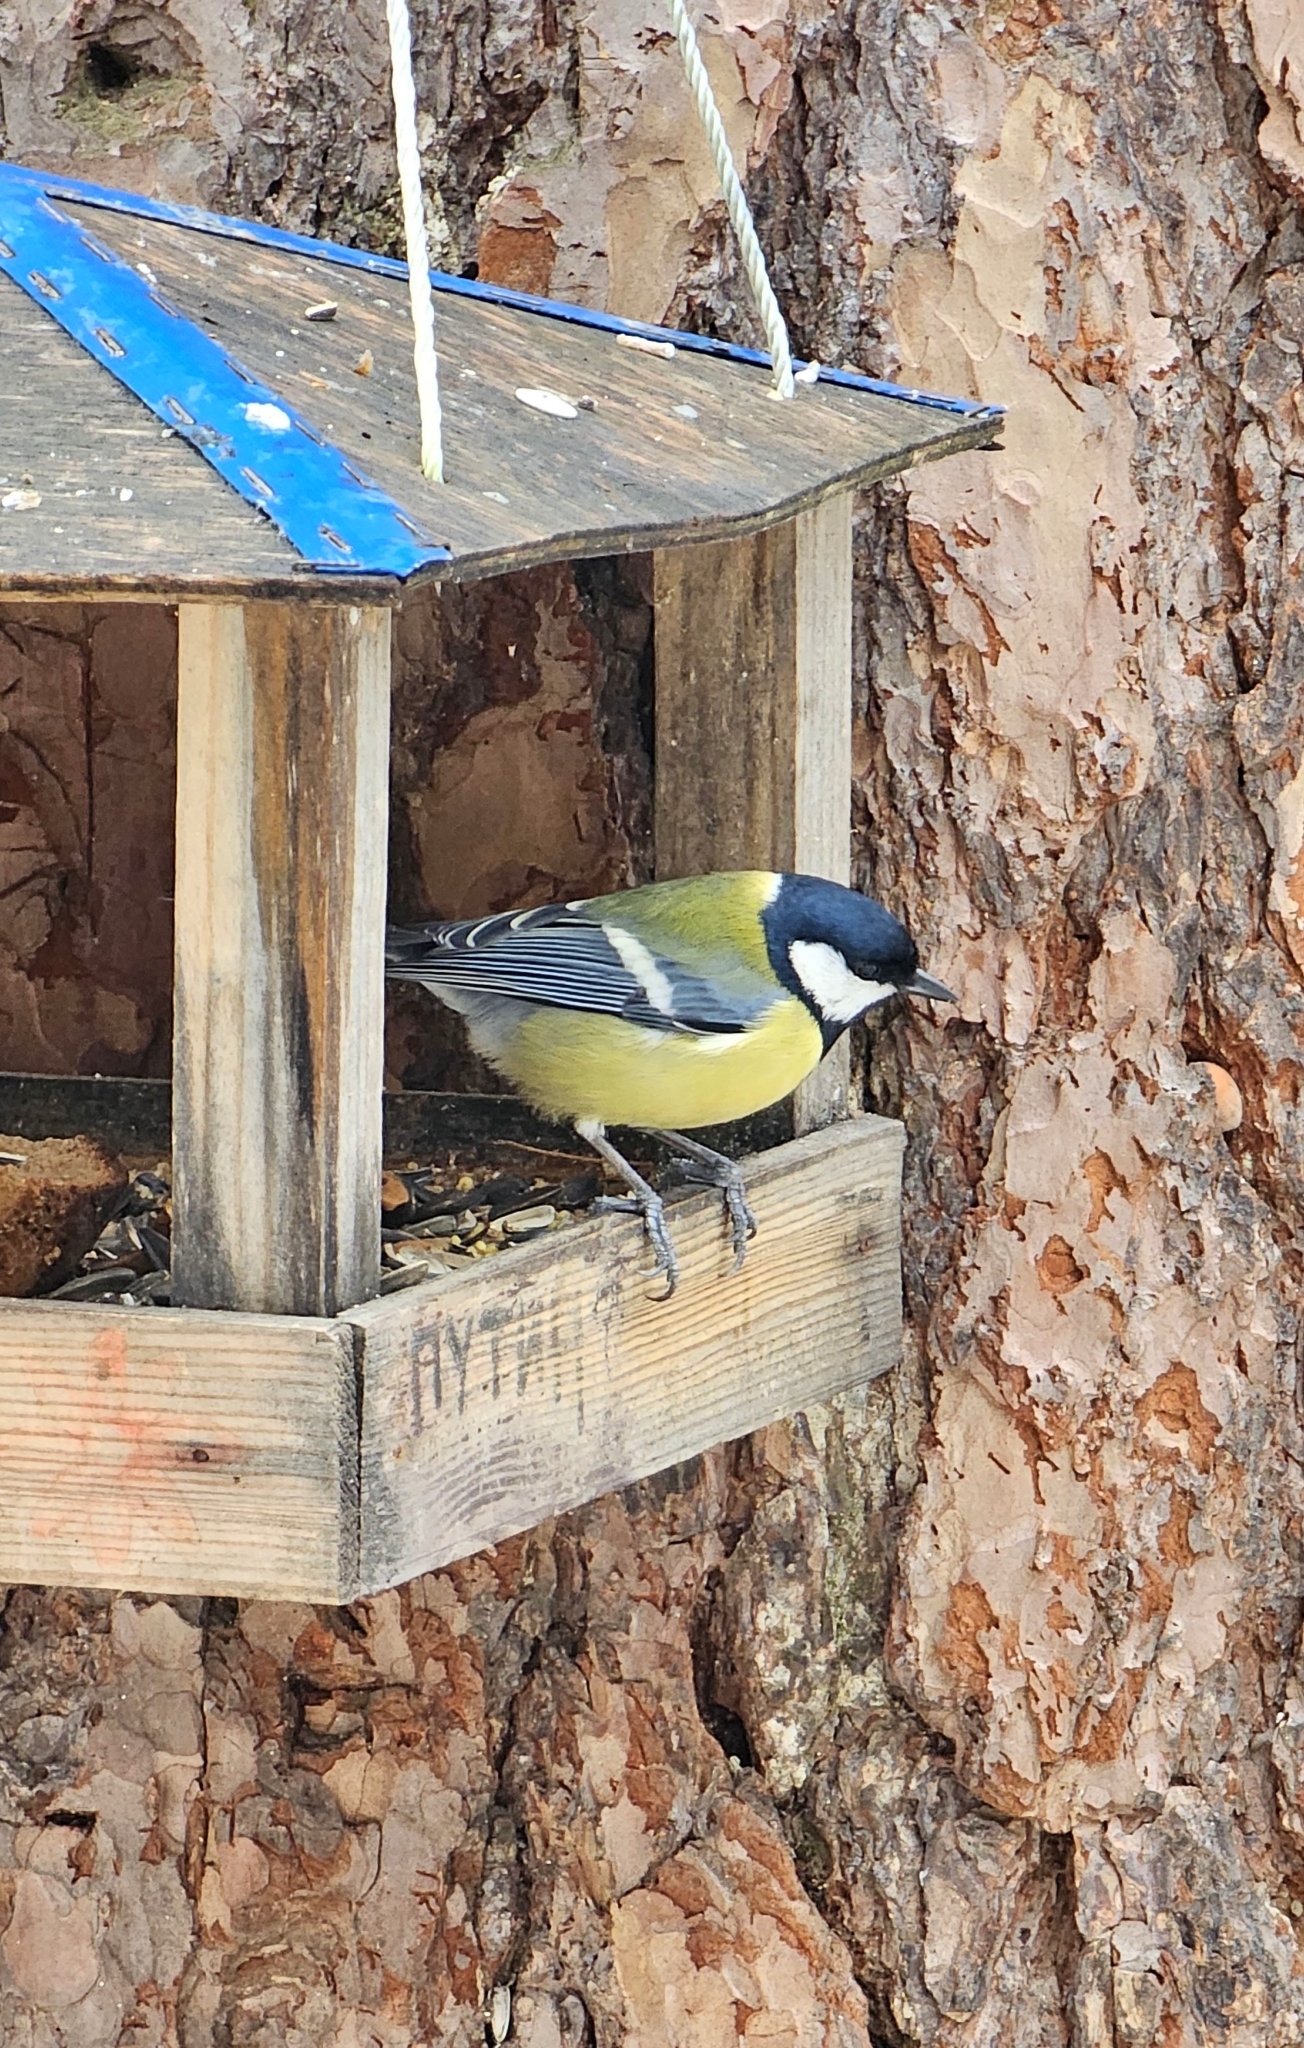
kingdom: Animalia
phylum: Chordata
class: Aves
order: Passeriformes
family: Paridae
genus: Parus
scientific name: Parus major
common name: Great tit
